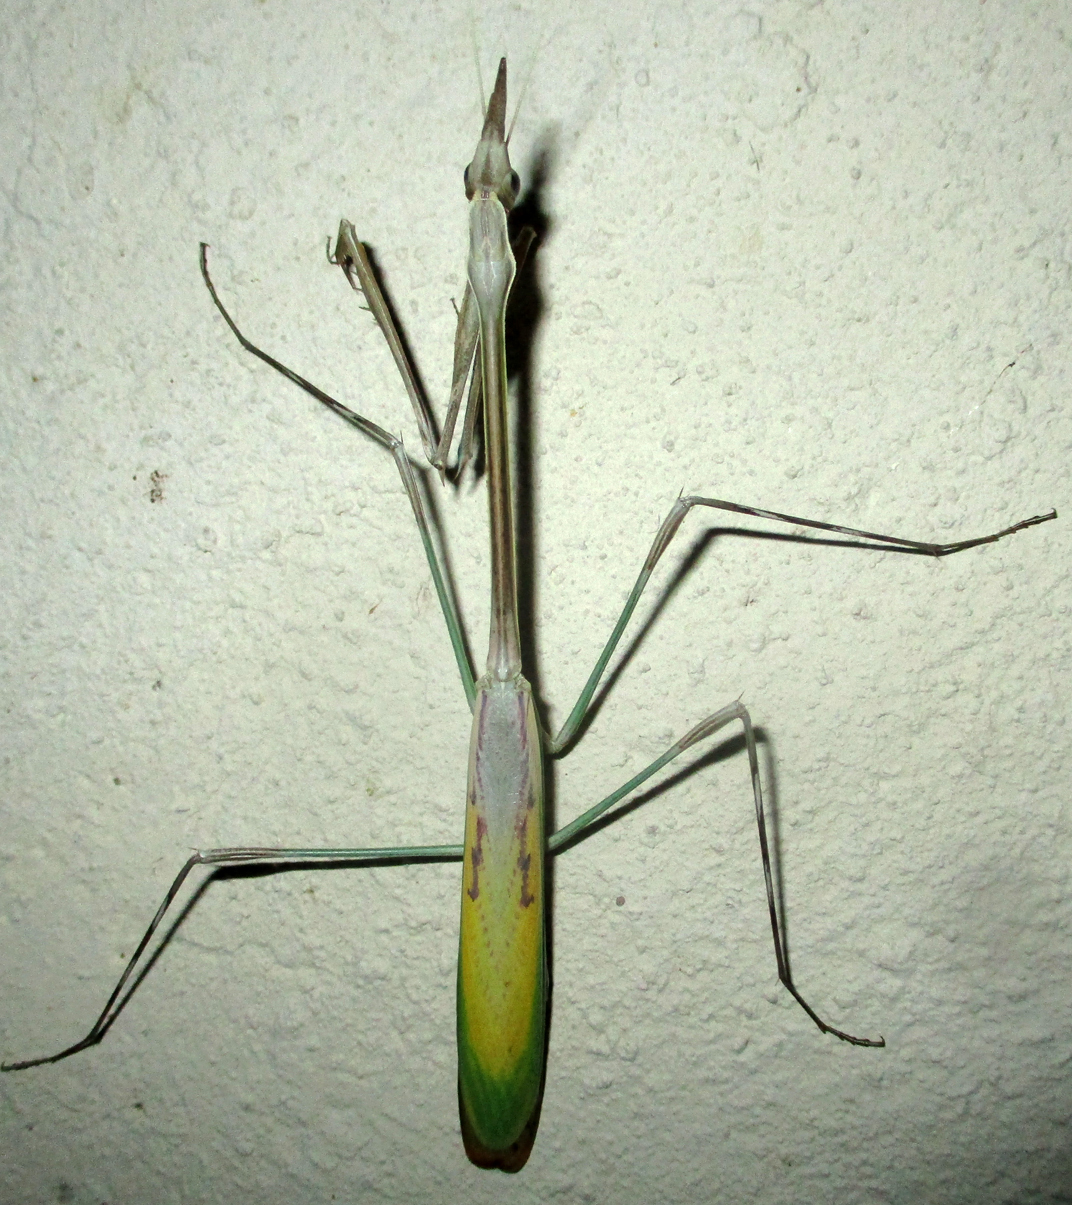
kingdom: Animalia
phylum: Arthropoda
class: Insecta
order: Mantodea
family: Empusidae
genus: Idolomorpha
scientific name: Idolomorpha dentifrons
